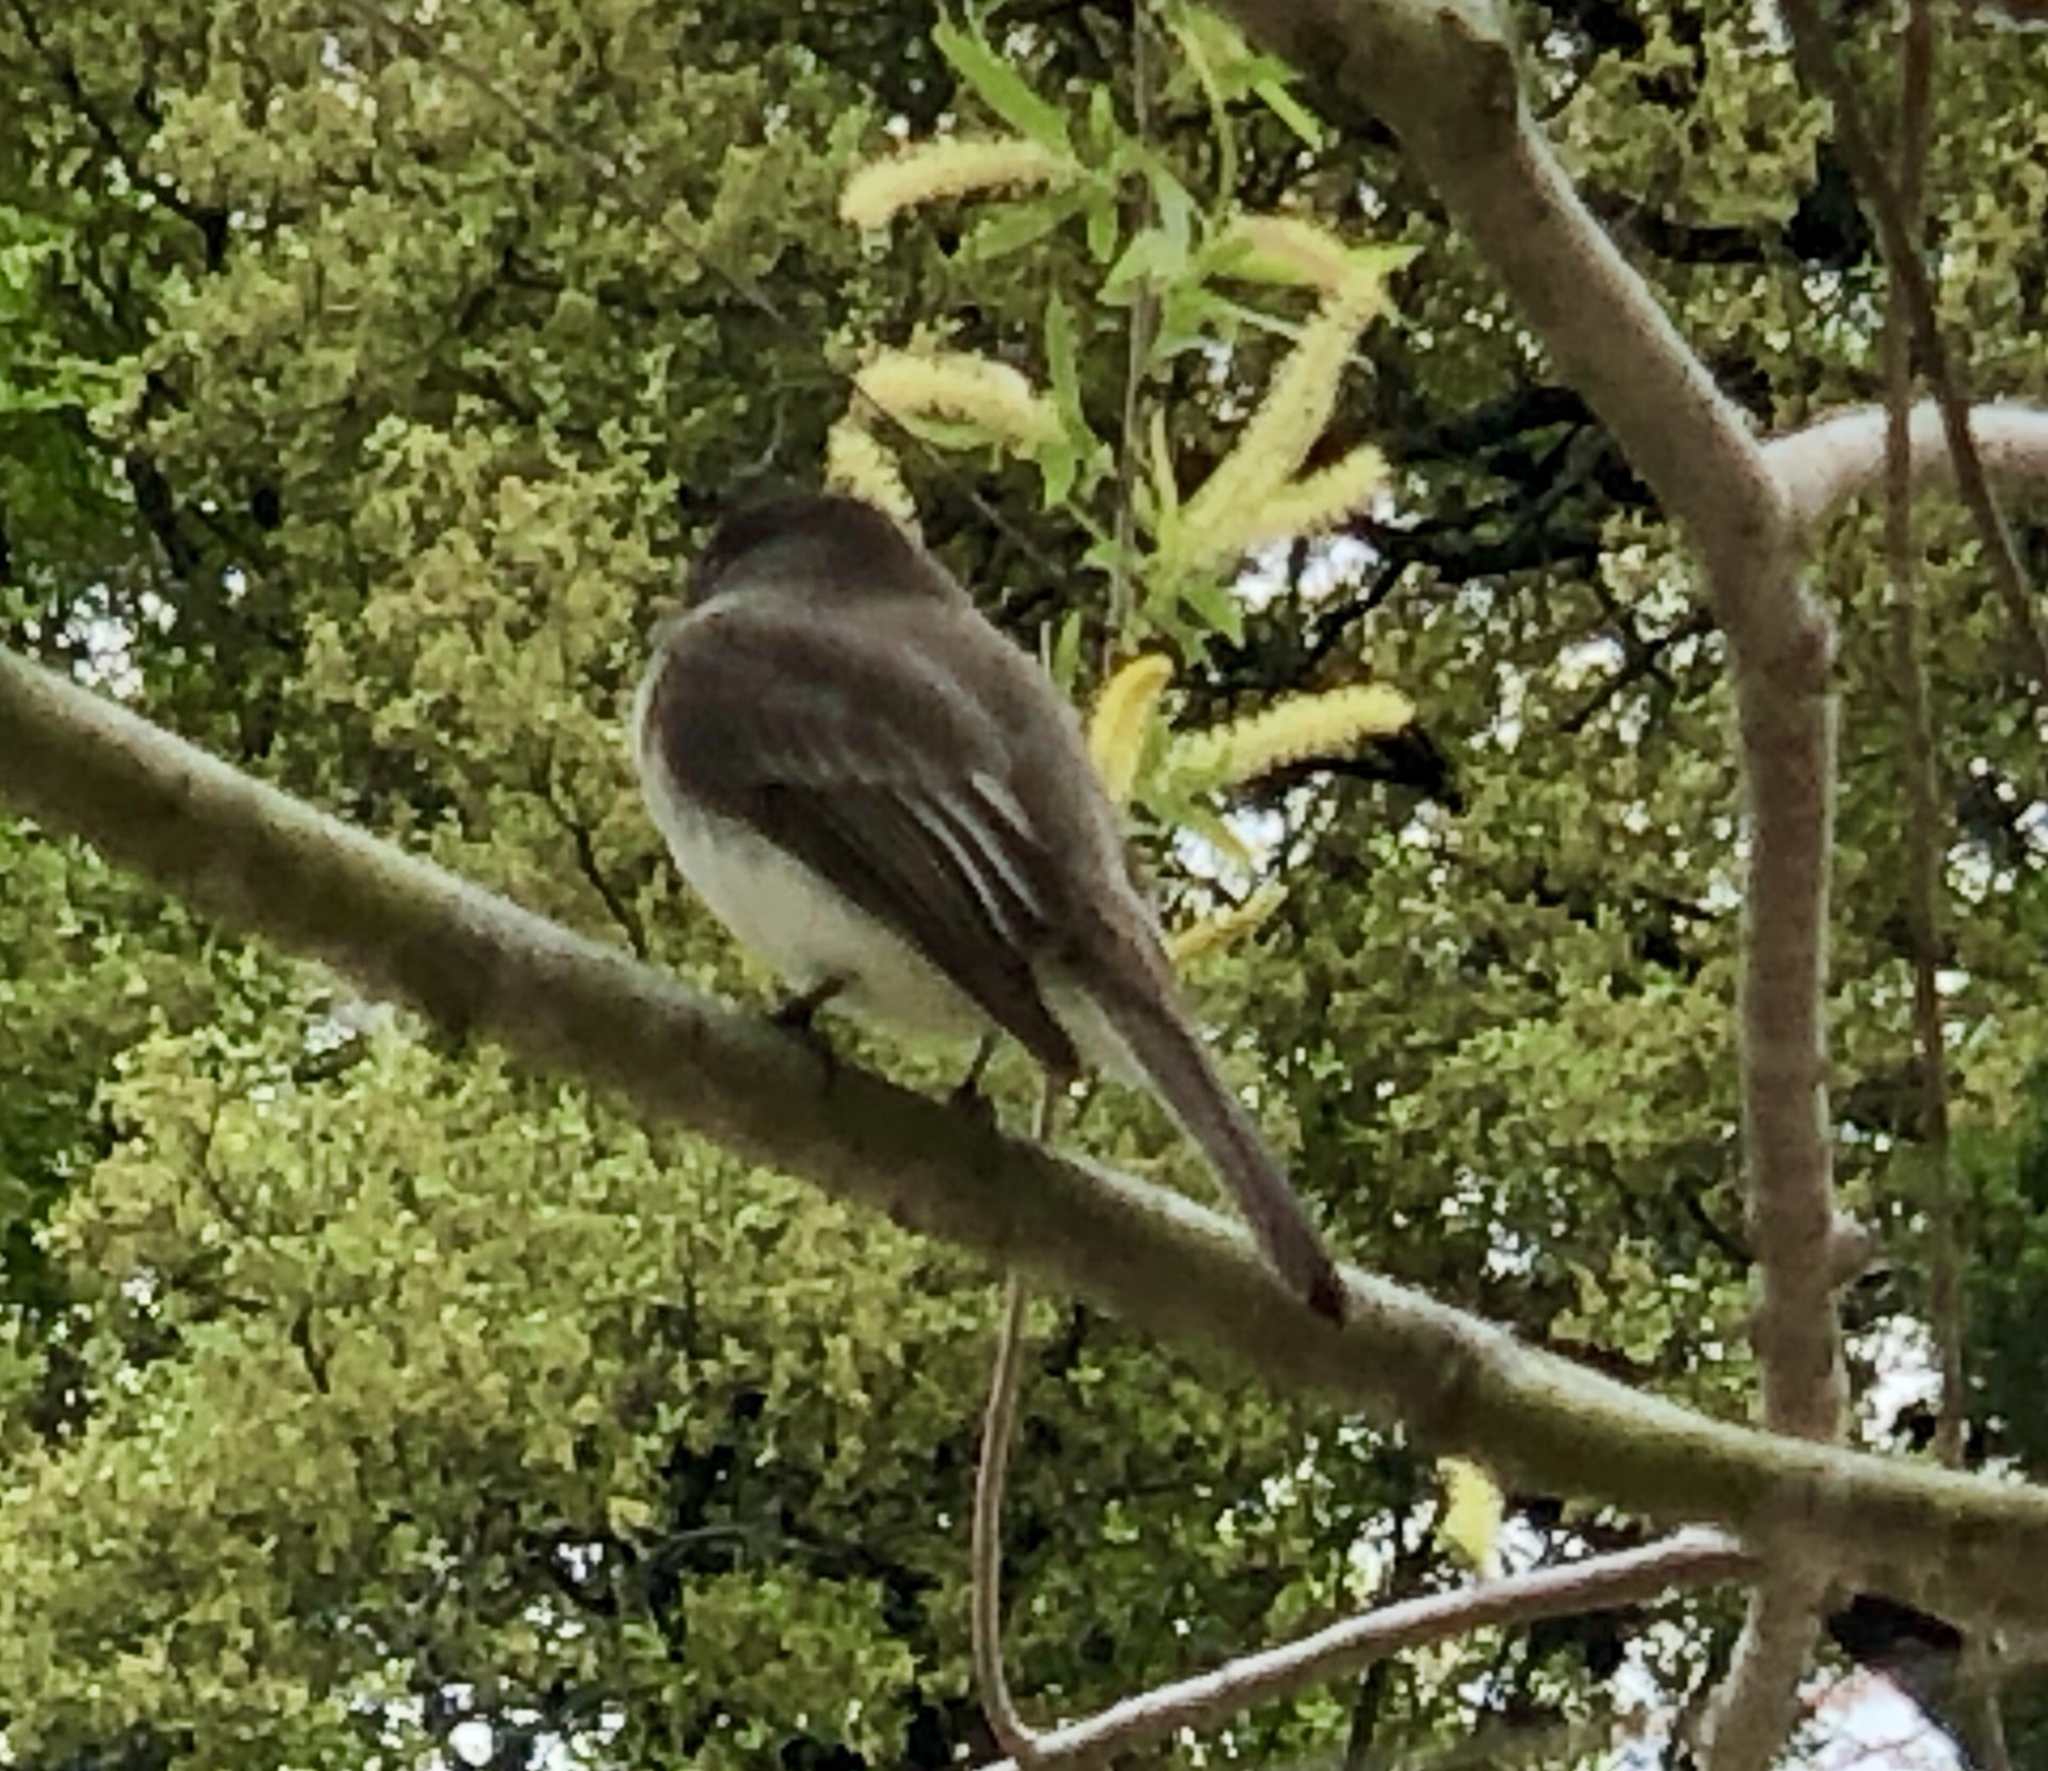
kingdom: Animalia
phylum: Chordata
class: Aves
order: Passeriformes
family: Tyrannidae
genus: Sayornis
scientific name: Sayornis phoebe
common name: Eastern phoebe
